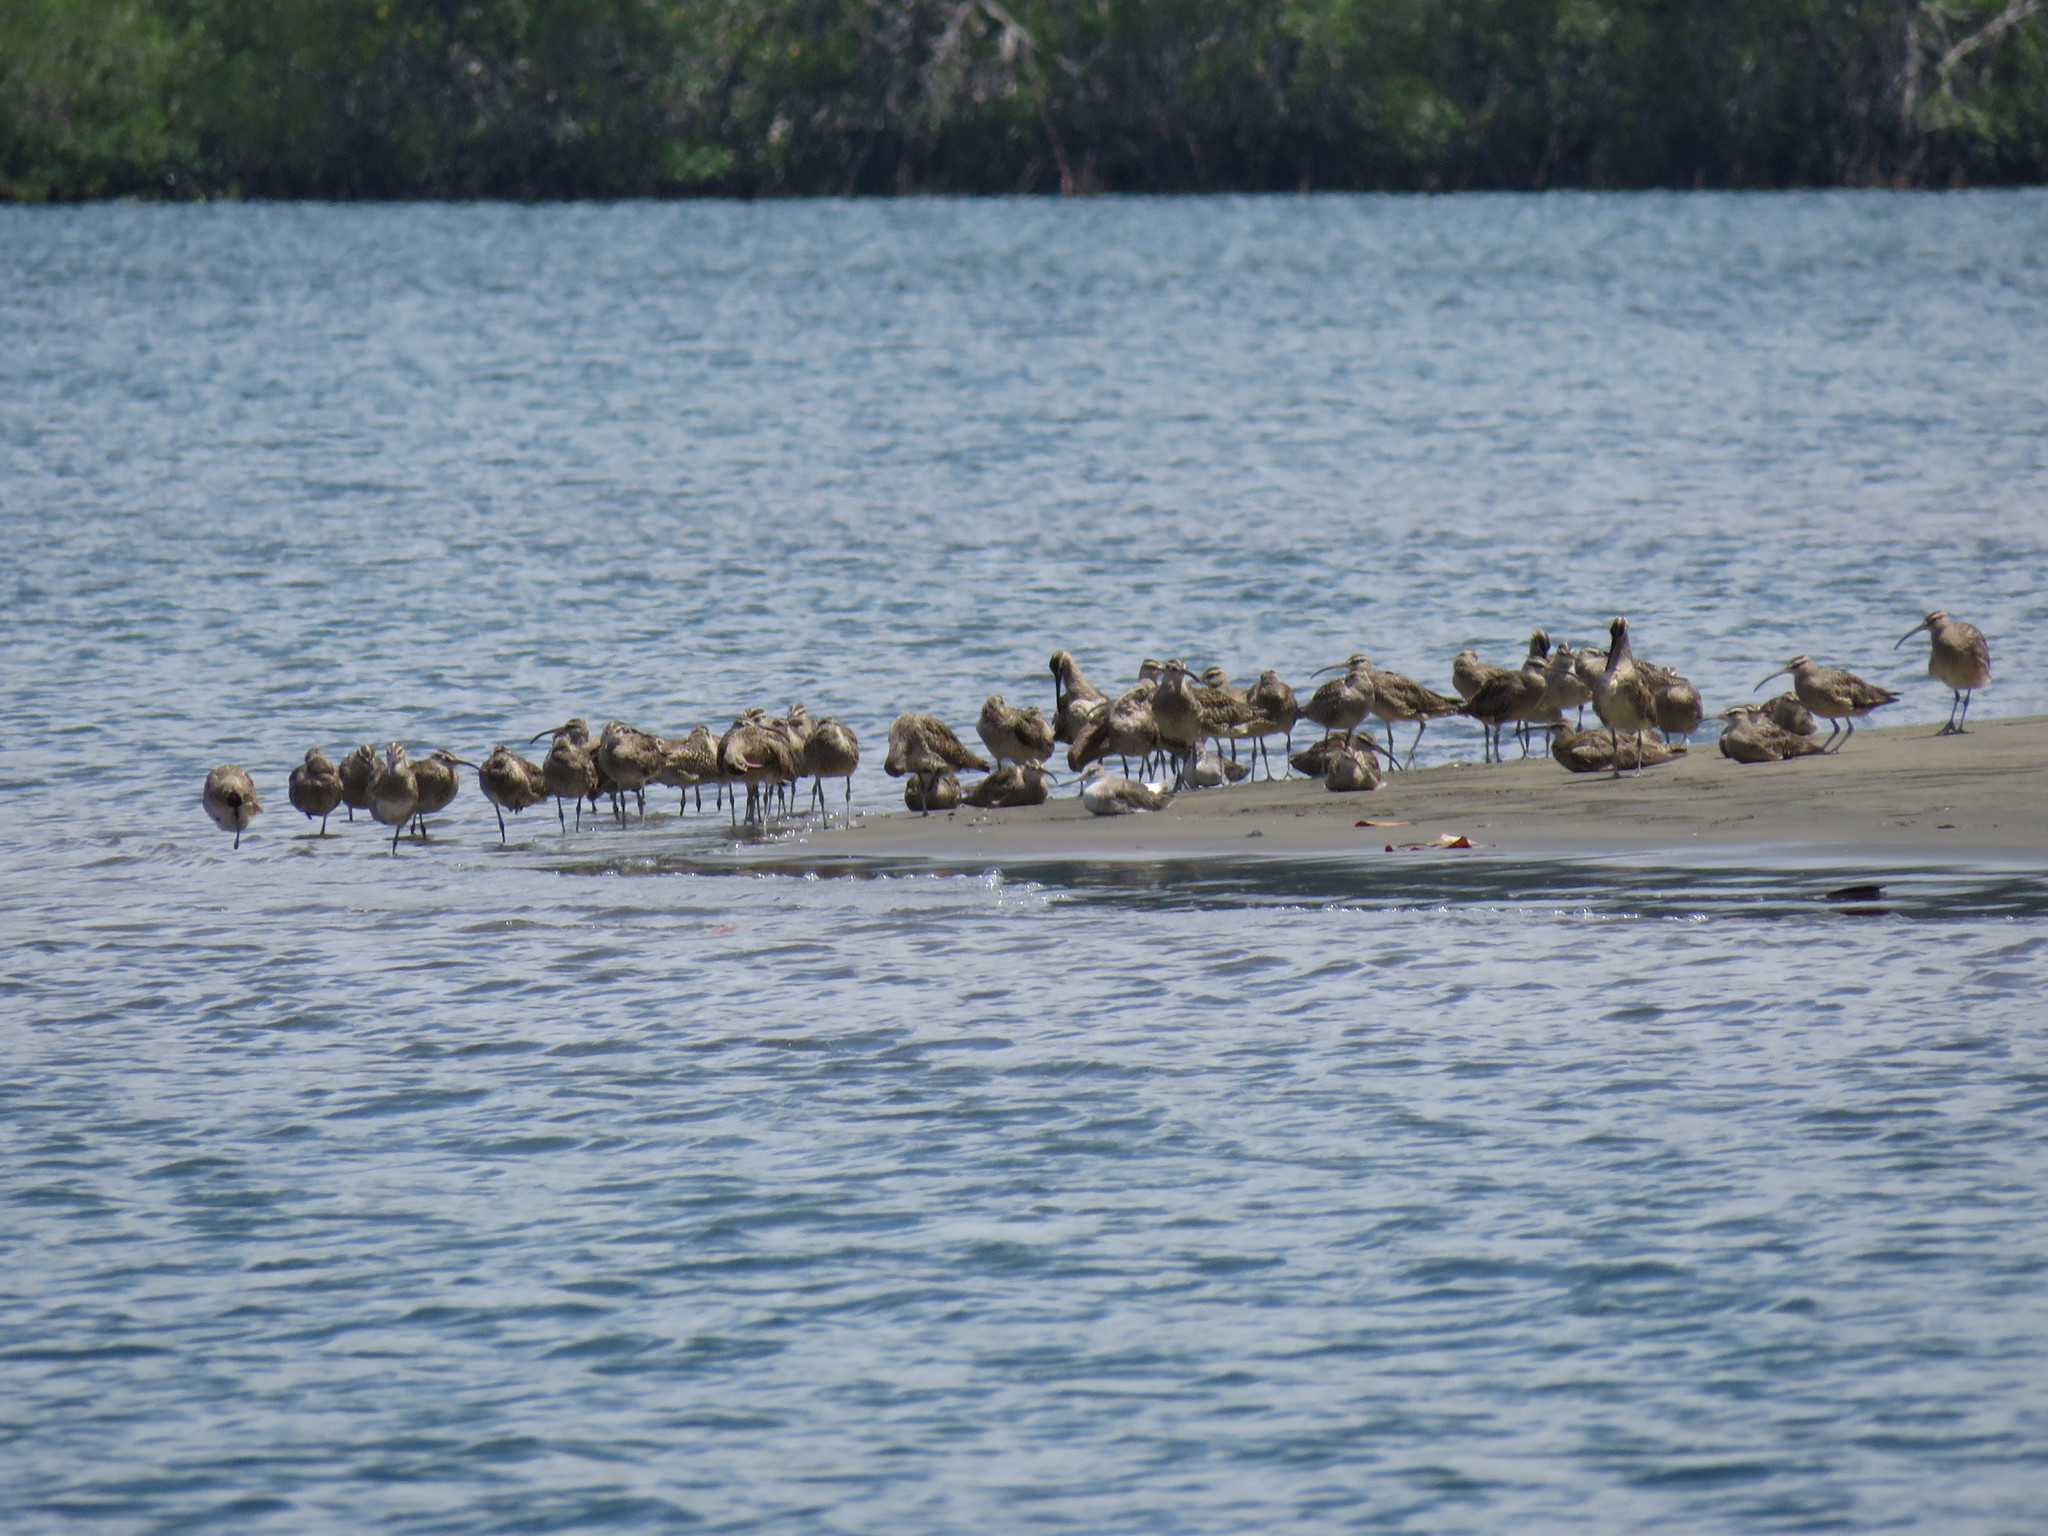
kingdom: Animalia
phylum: Chordata
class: Aves
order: Charadriiformes
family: Scolopacidae
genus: Numenius
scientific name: Numenius phaeopus
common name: Whimbrel
